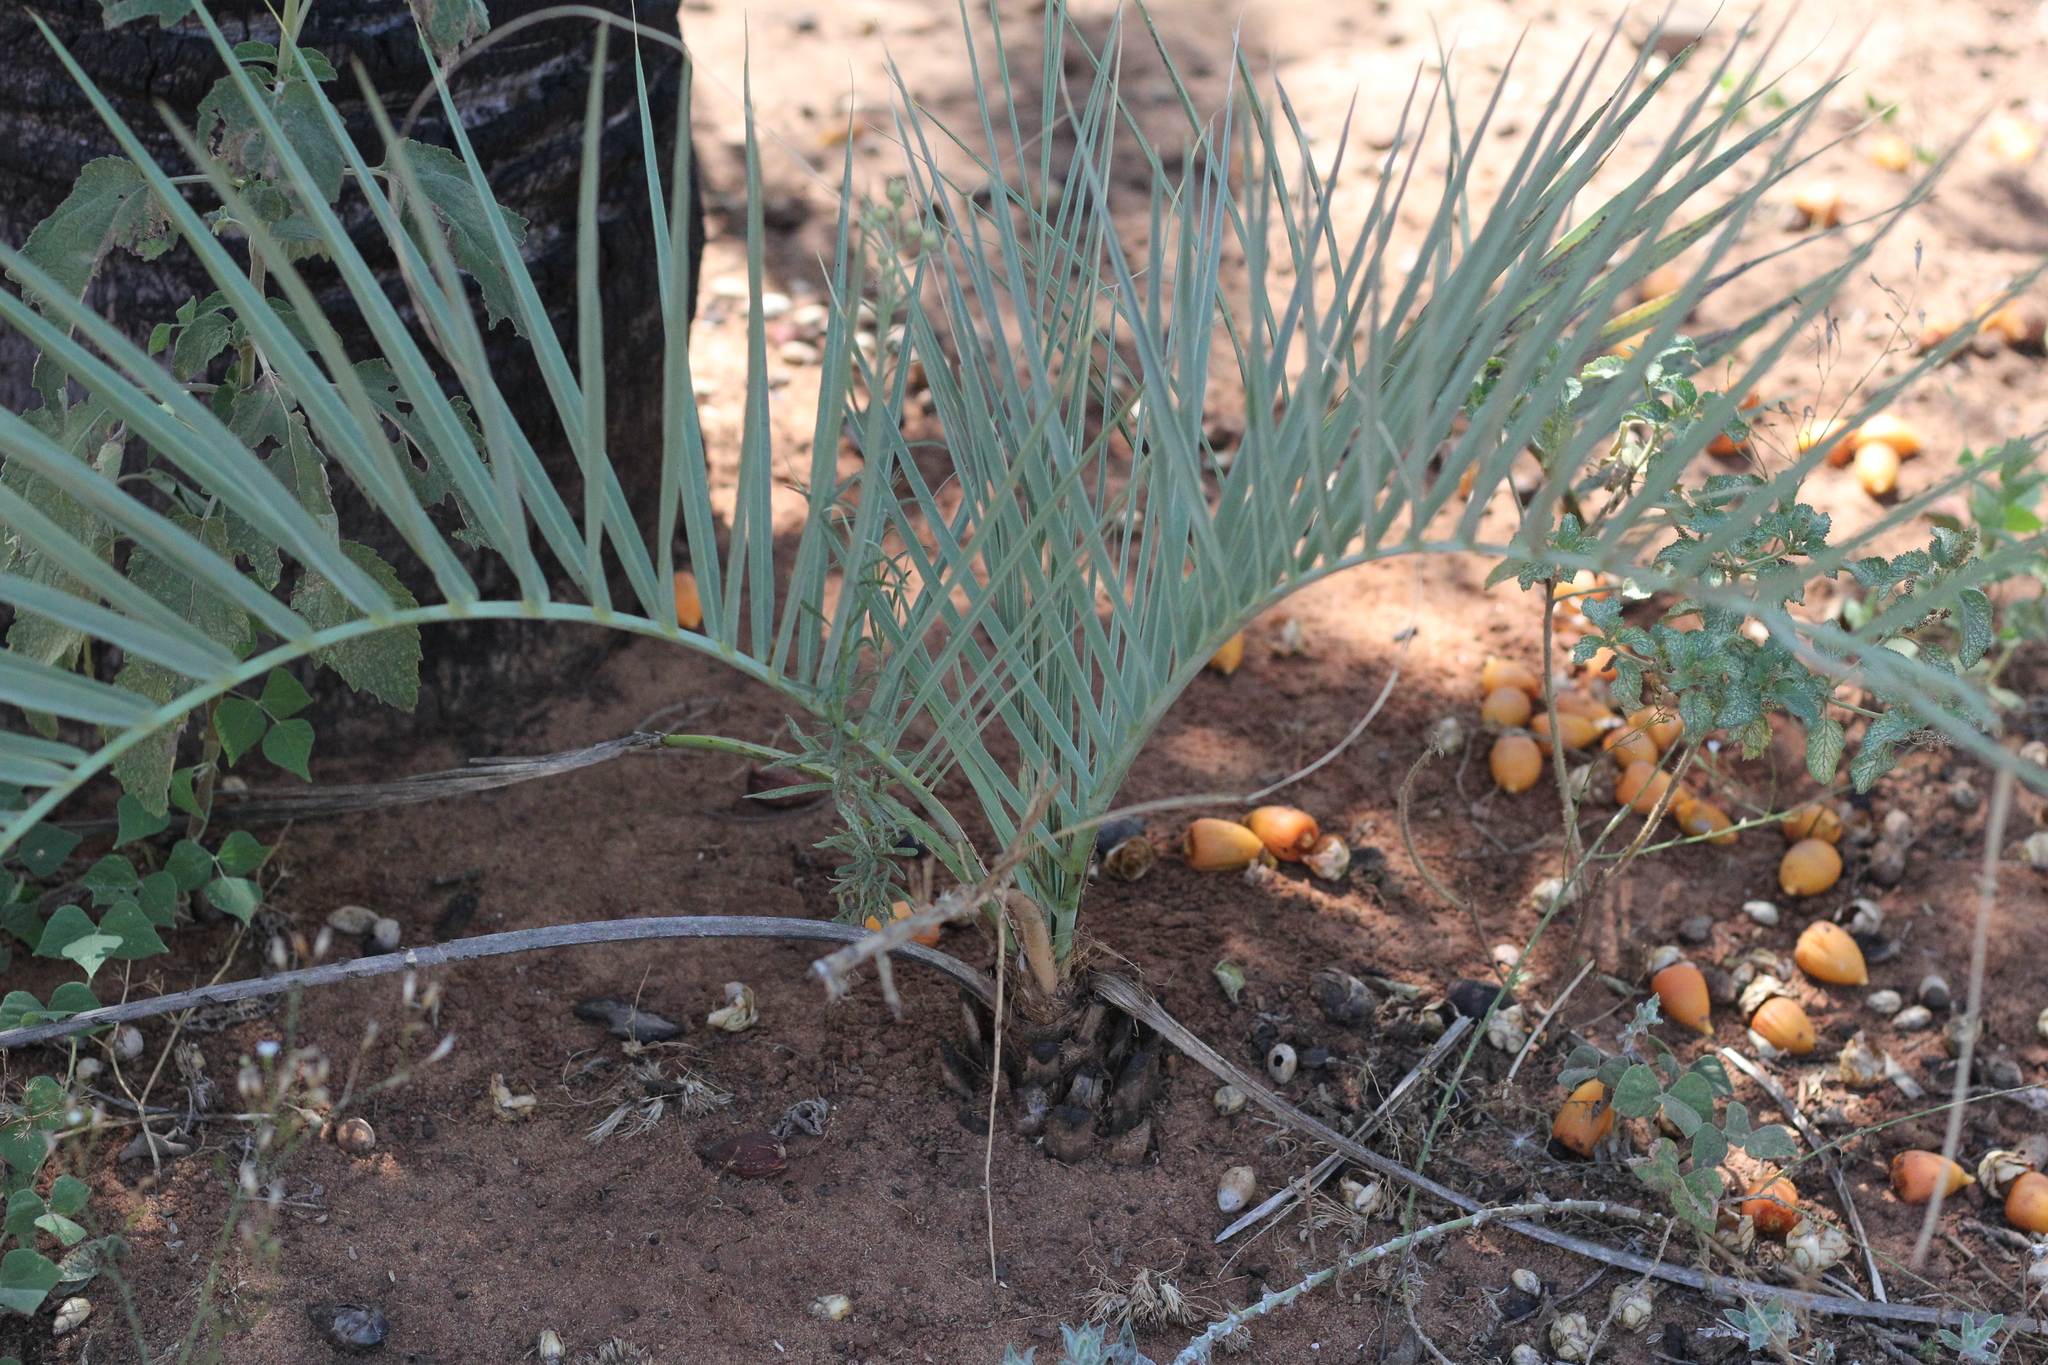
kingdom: Plantae
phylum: Tracheophyta
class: Liliopsida
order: Arecales
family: Arecaceae
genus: Butia
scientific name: Butia noblickii
